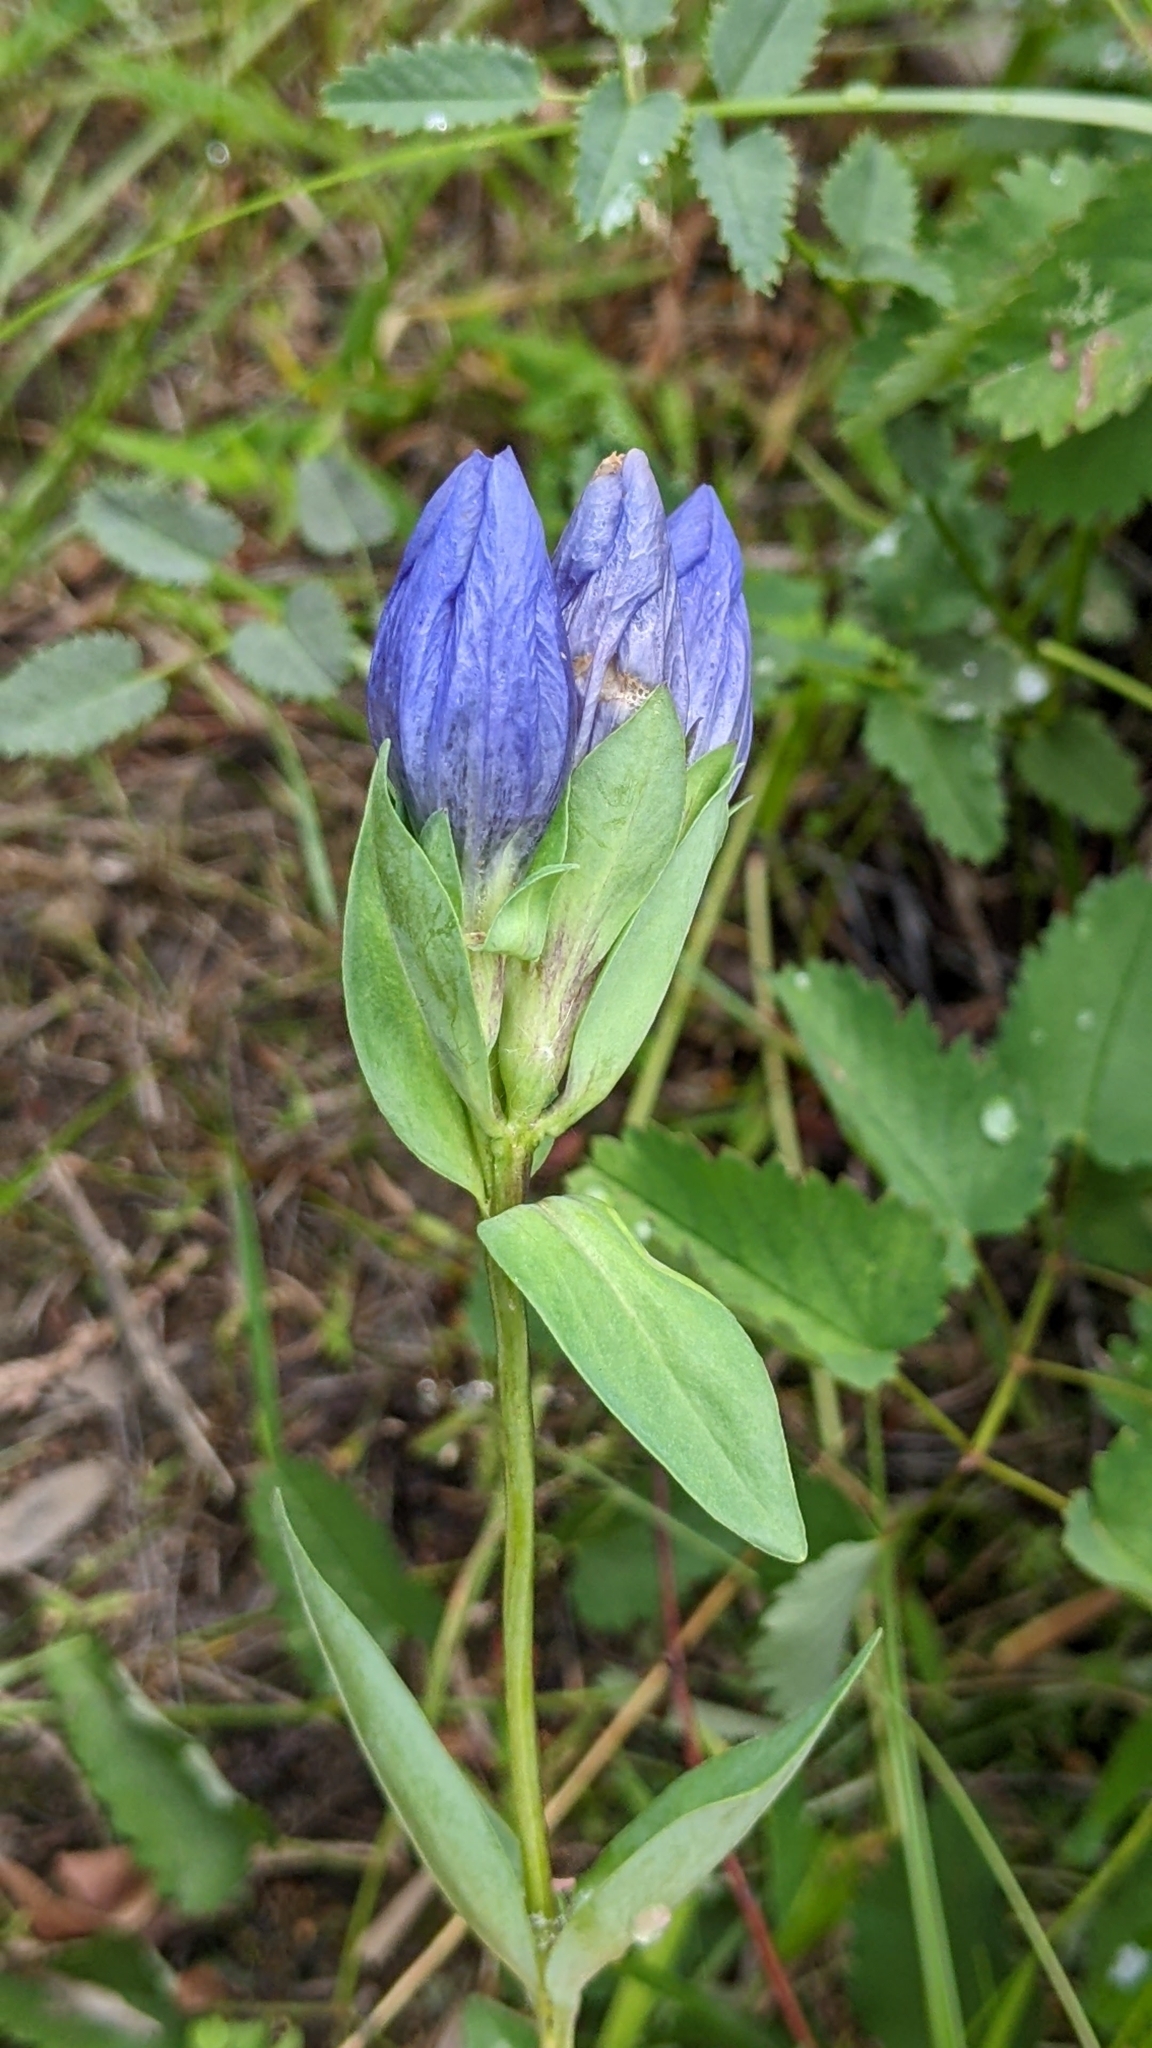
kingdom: Plantae
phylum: Tracheophyta
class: Magnoliopsida
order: Gentianales
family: Gentianaceae
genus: Gentiana
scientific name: Gentiana sceptrum
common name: Pacific gentian
